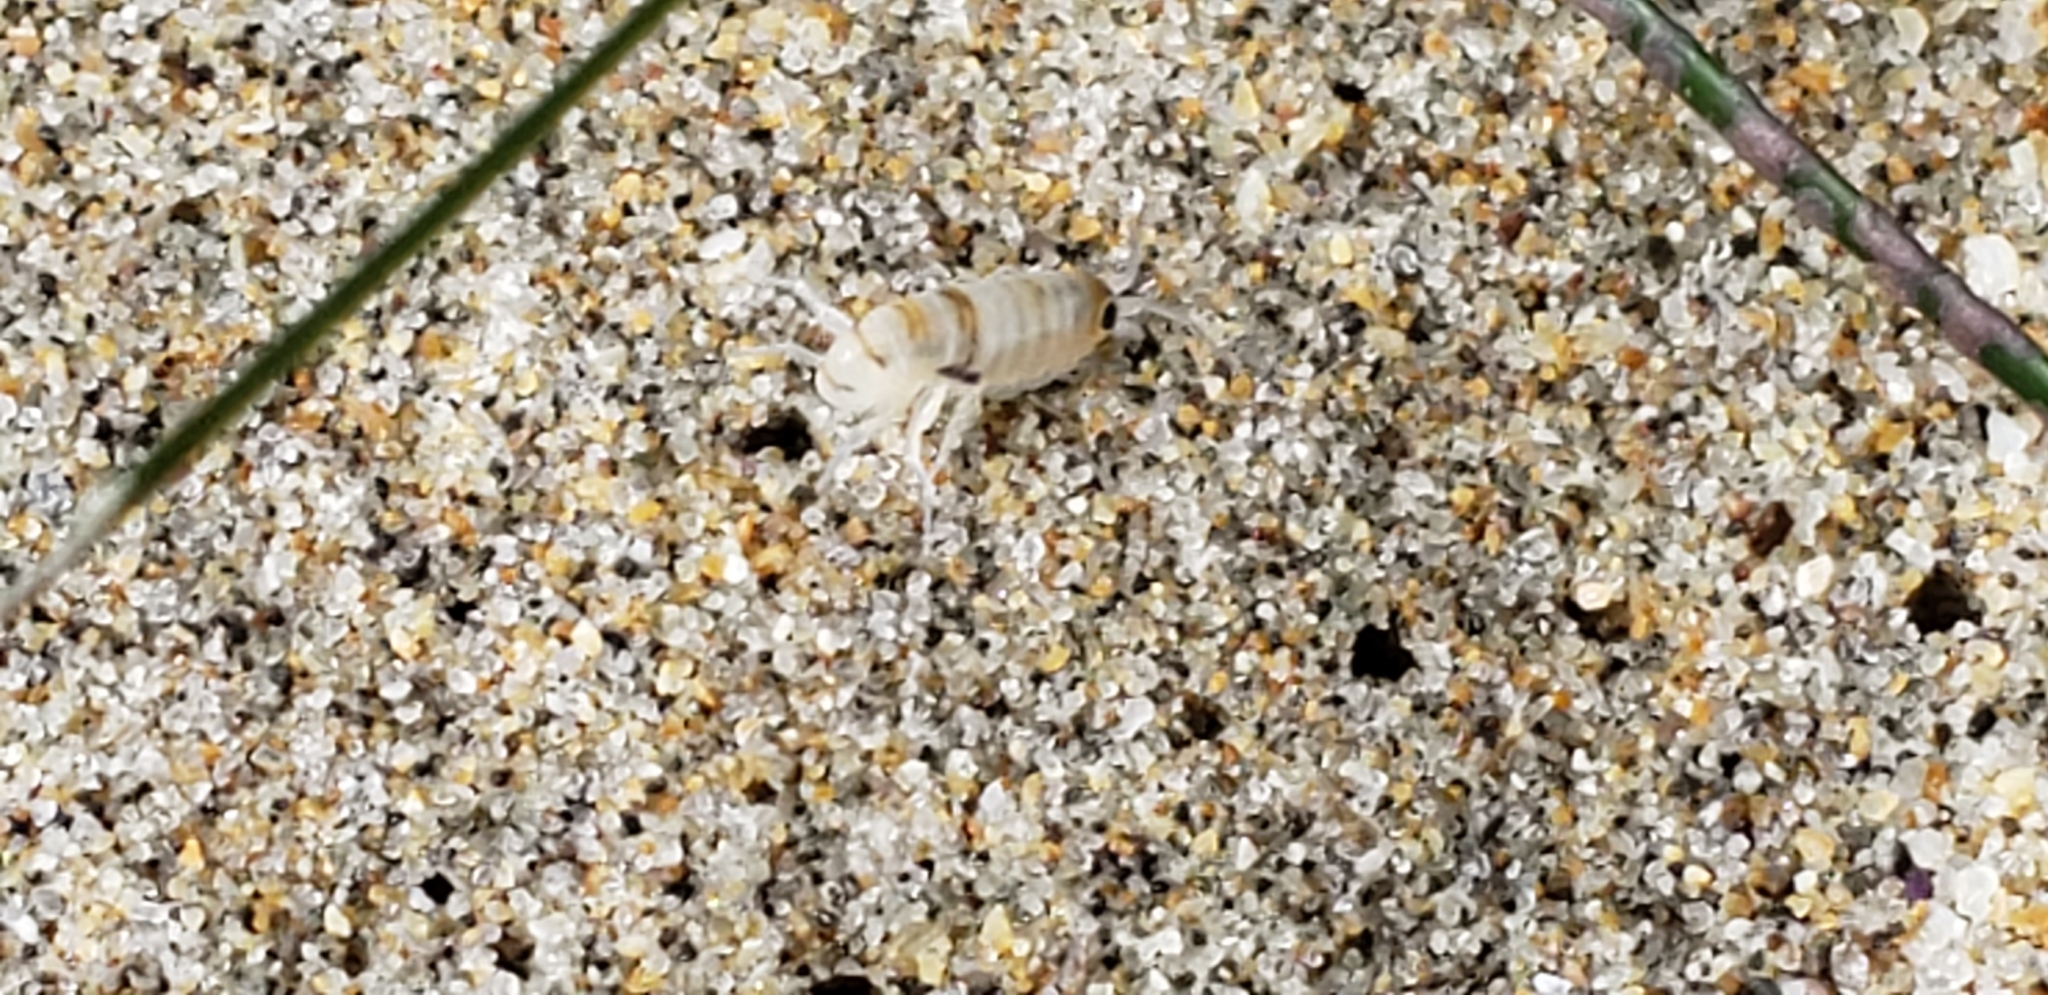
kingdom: Animalia
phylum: Arthropoda
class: Malacostraca
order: Amphipoda
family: Talitridae
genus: Megalorchestia
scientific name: Megalorchestia columbiana
